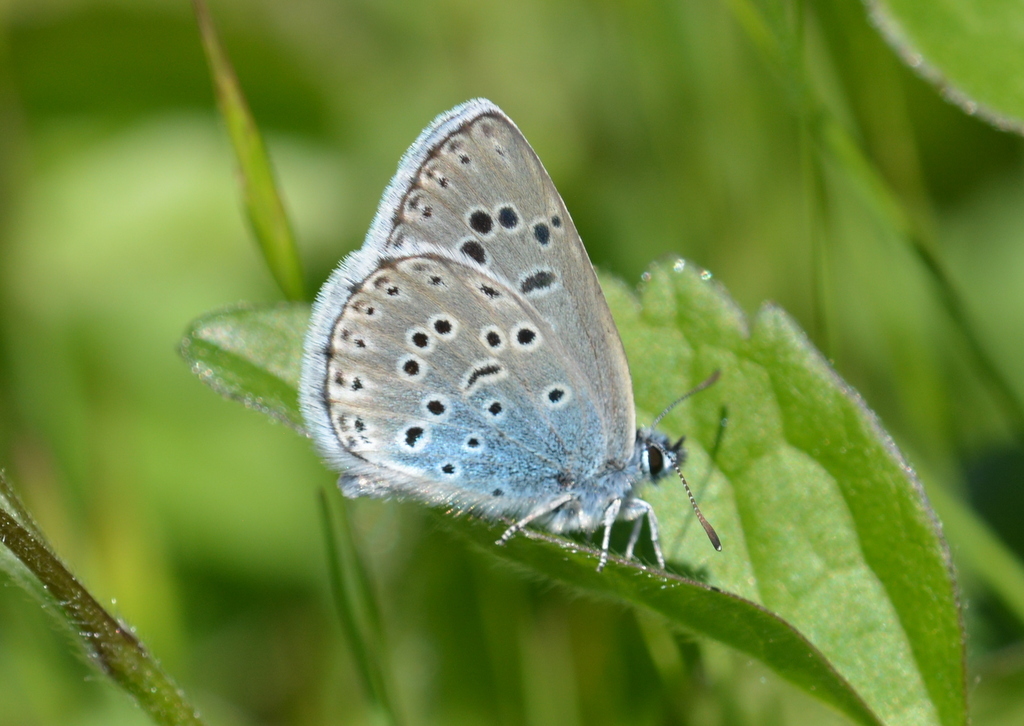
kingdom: Animalia
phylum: Arthropoda
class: Insecta
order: Lepidoptera
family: Lycaenidae
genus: Maculinea
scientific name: Maculinea arion
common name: Large blue
